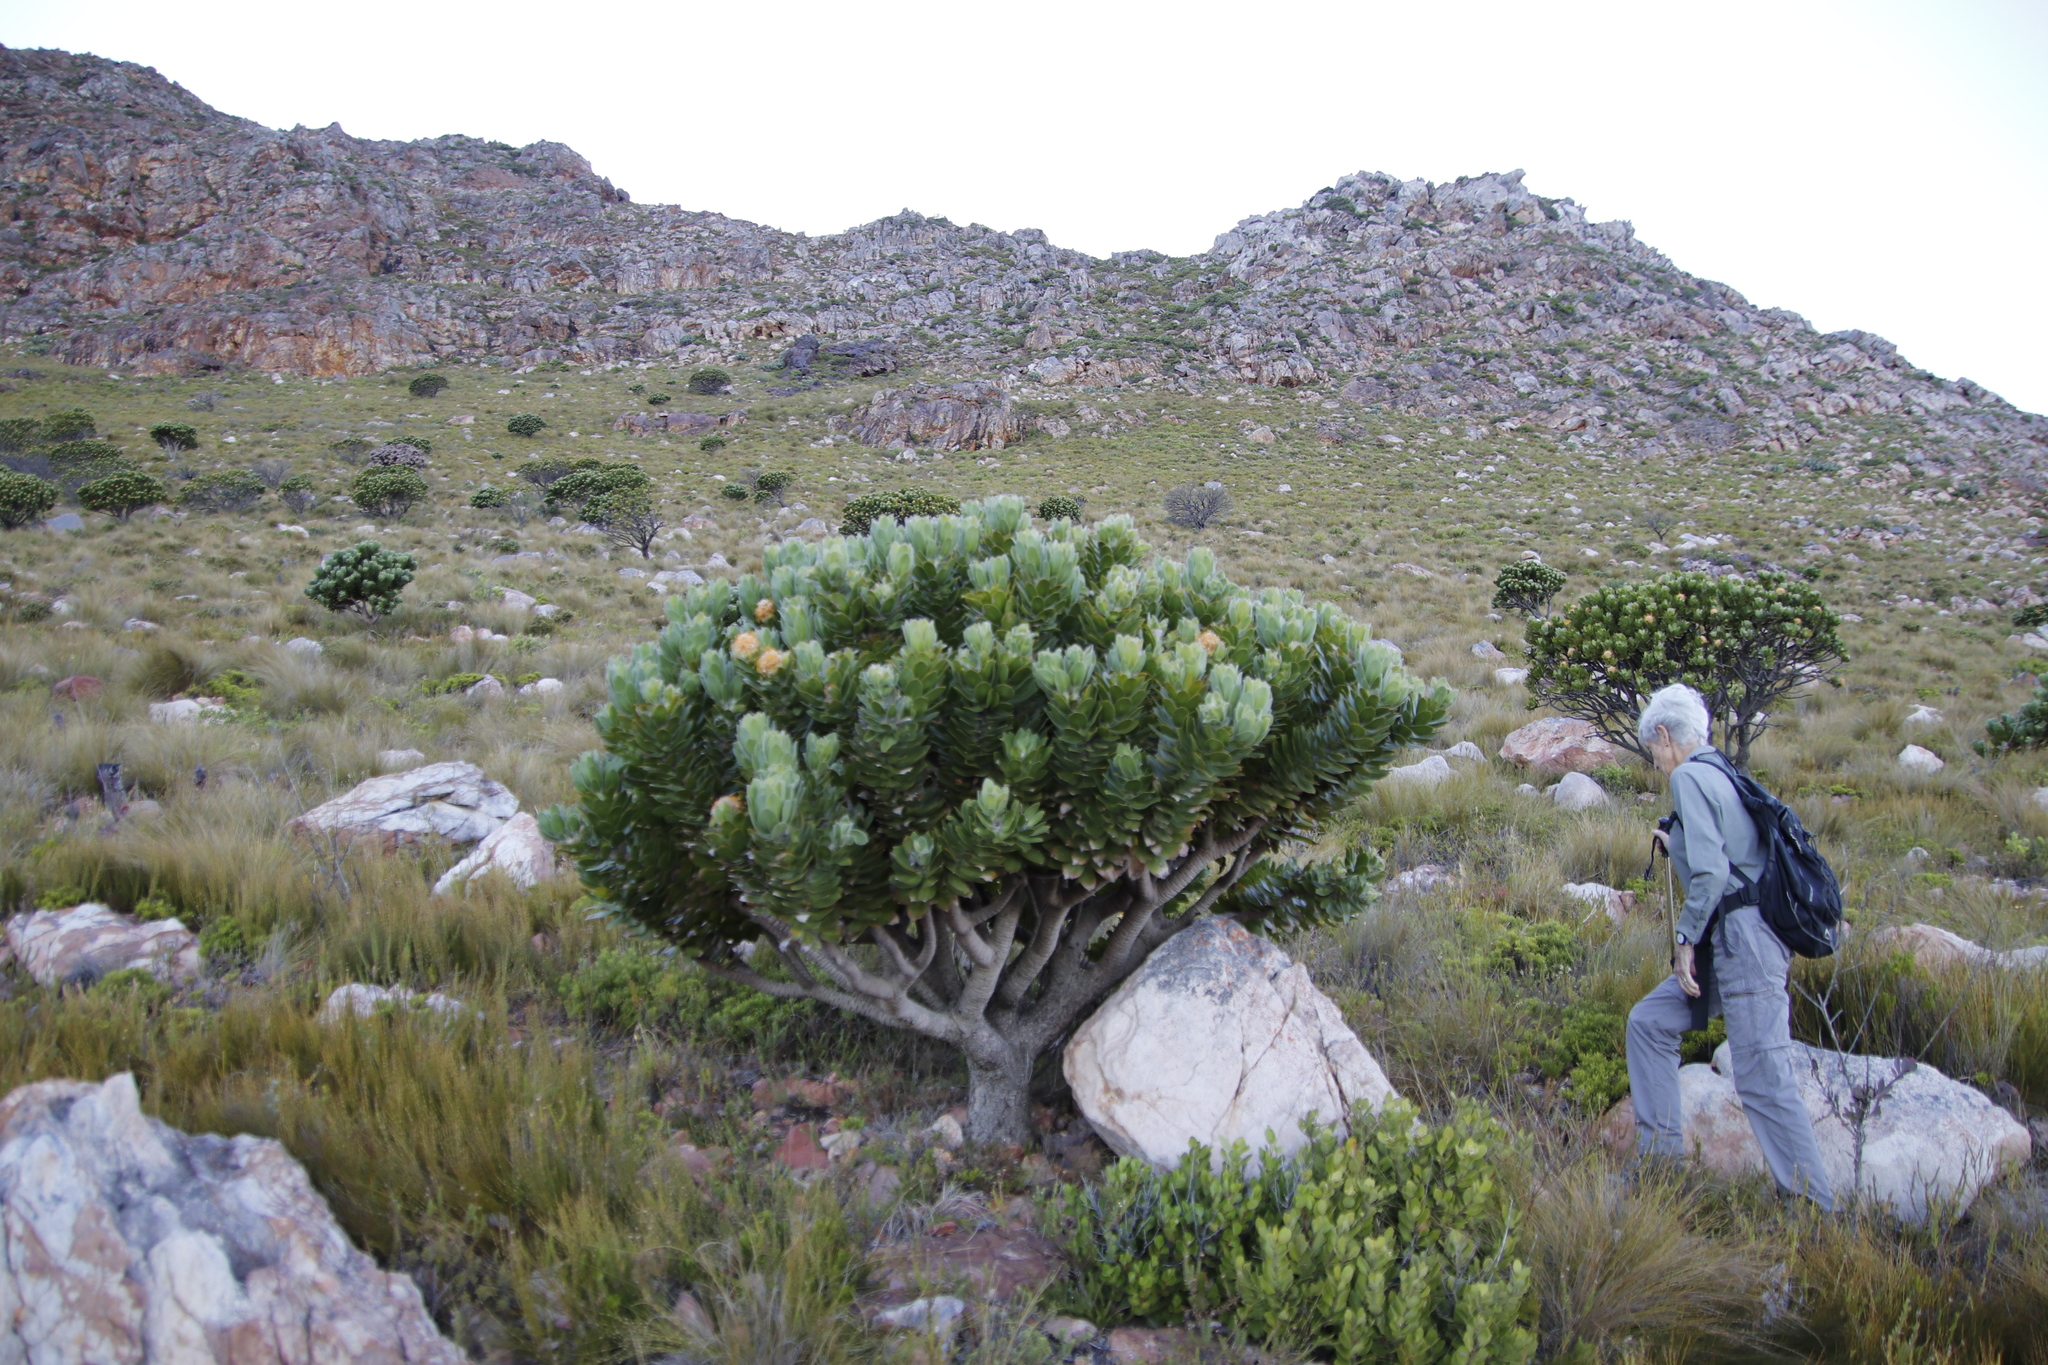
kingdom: Plantae
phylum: Tracheophyta
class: Magnoliopsida
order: Proteales
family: Proteaceae
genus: Leucospermum
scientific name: Leucospermum conocarpodendron
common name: Tree pincushion
